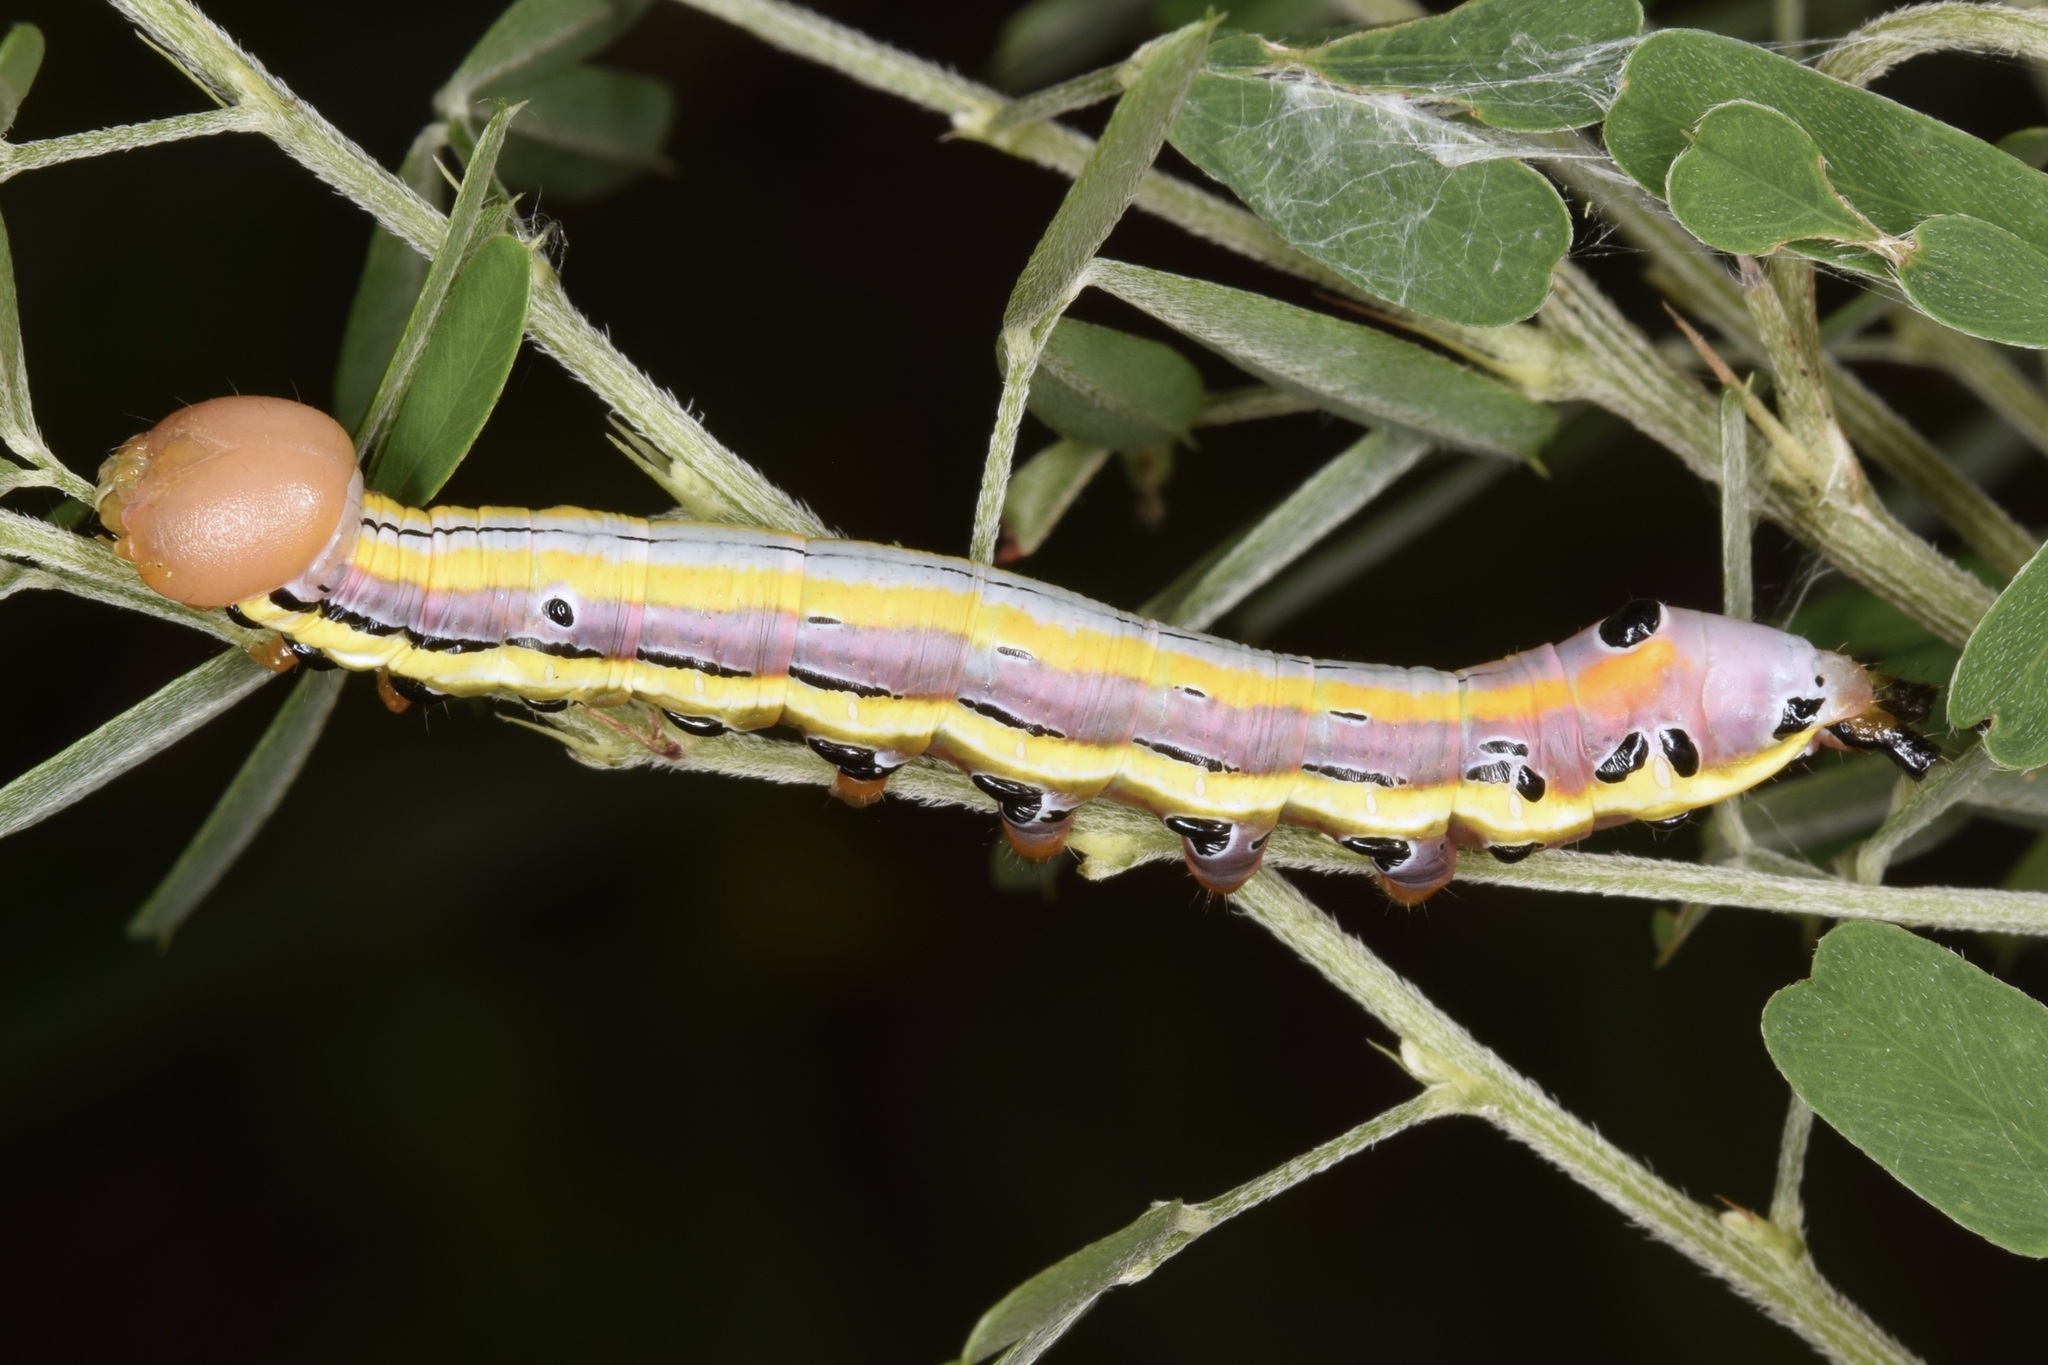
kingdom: Animalia
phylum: Arthropoda
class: Insecta
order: Lepidoptera
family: Notodontidae
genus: Dasylophia
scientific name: Dasylophia anguina
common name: Black-spotted prominent
